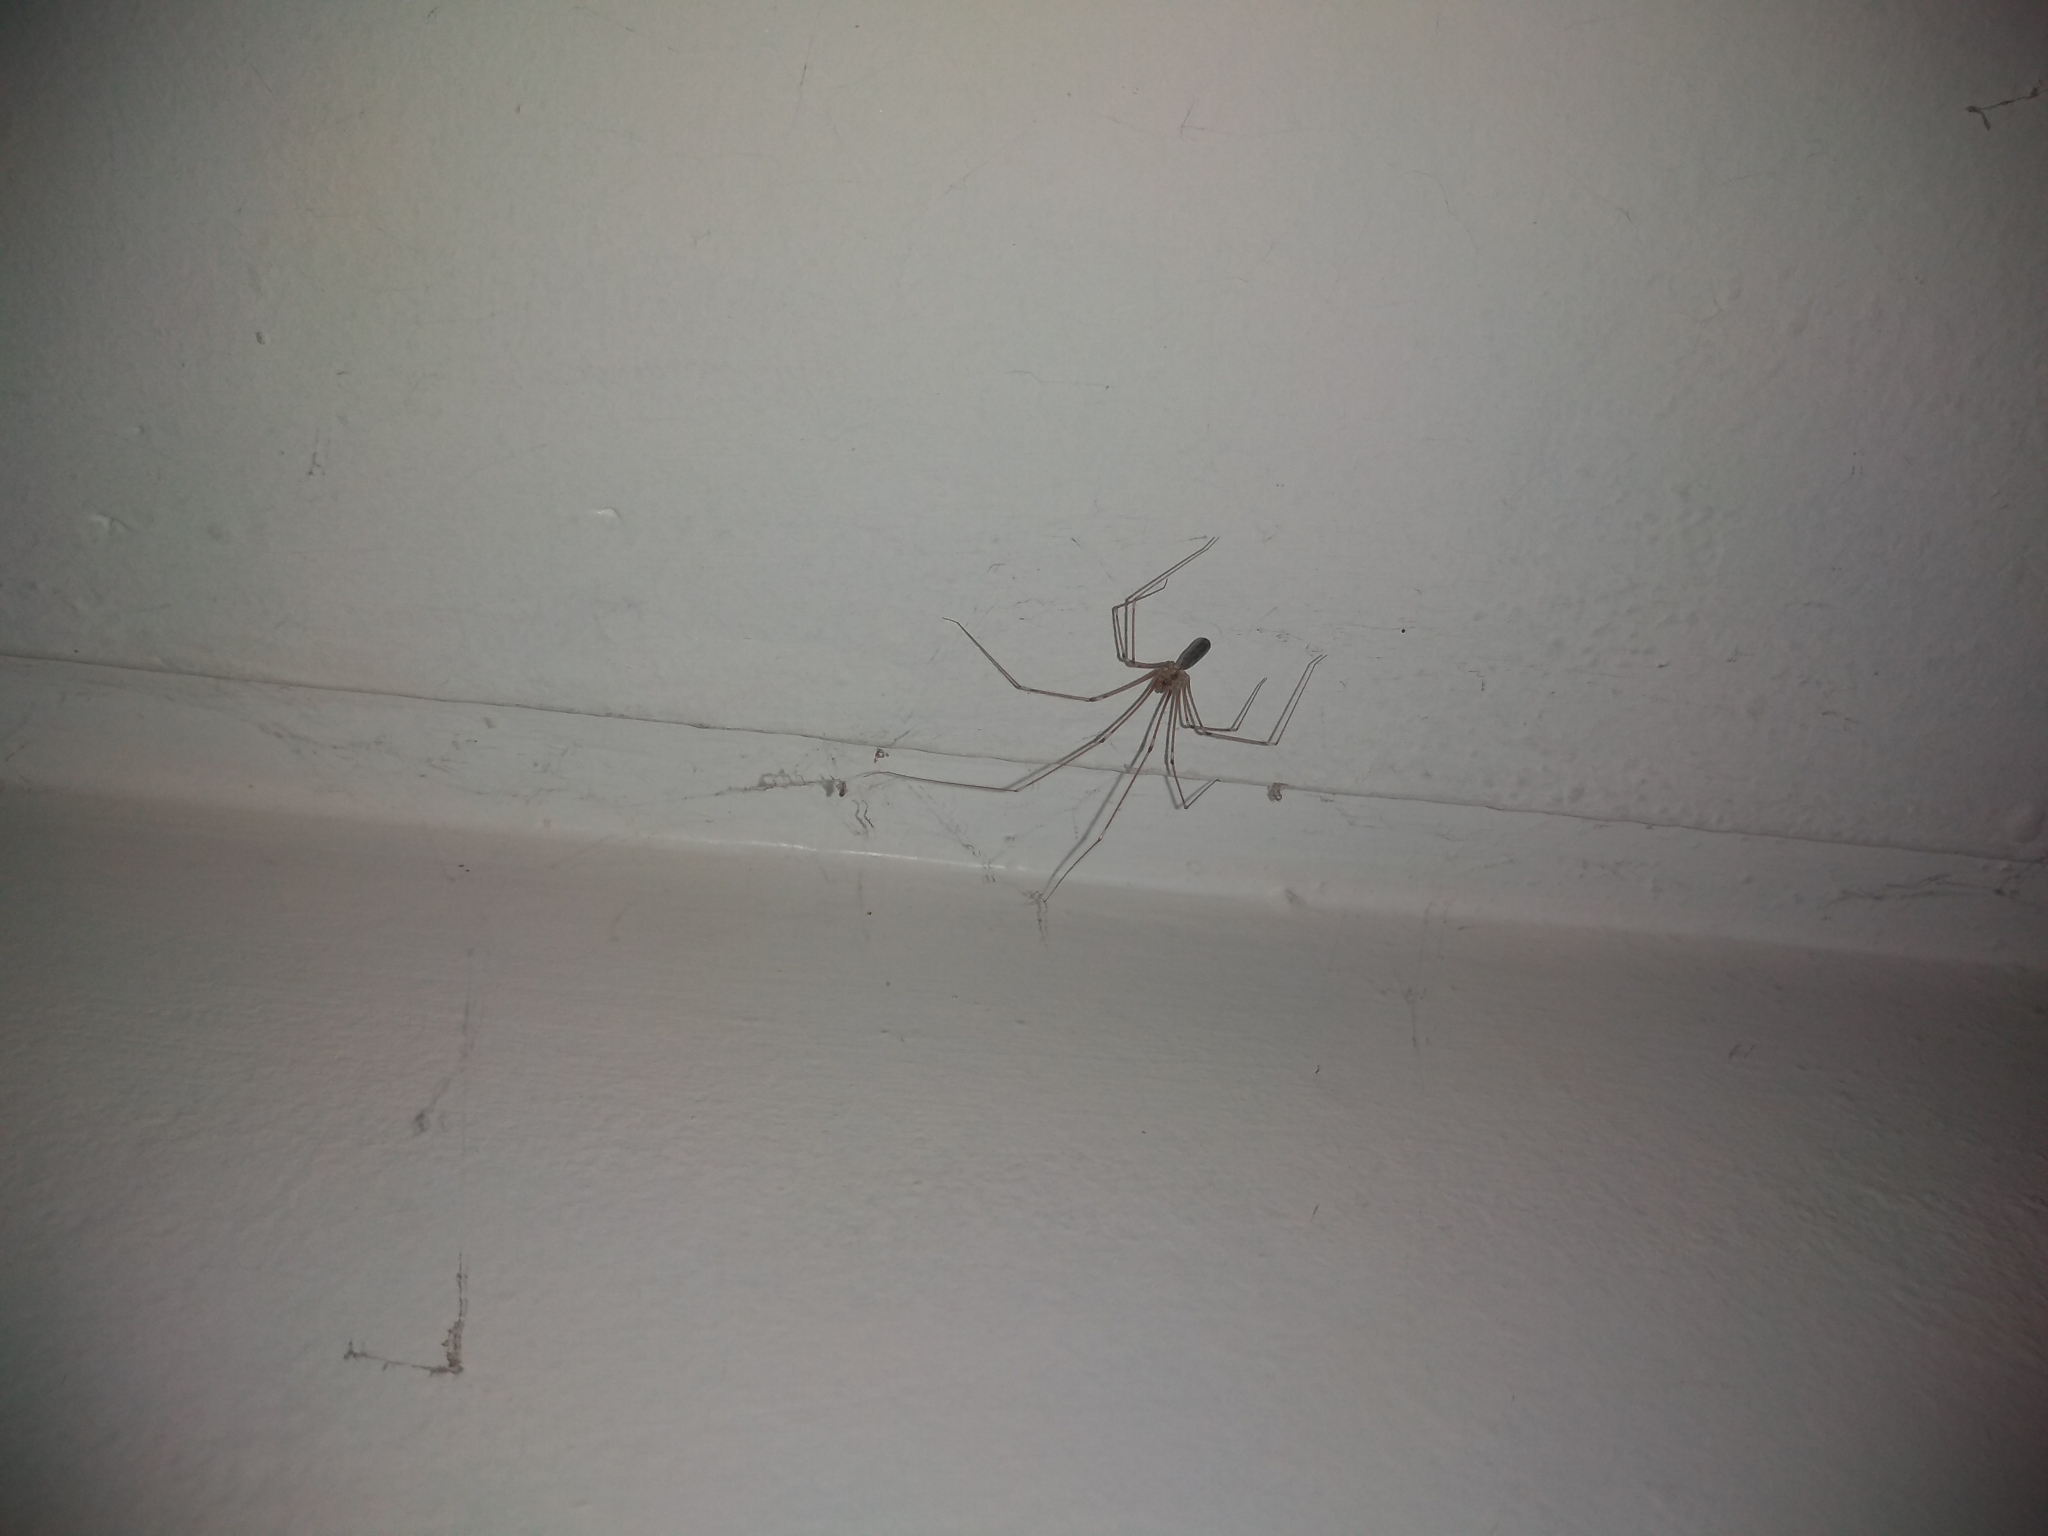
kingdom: Animalia
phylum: Arthropoda
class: Arachnida
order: Araneae
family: Pholcidae
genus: Pholcus
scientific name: Pholcus phalangioides
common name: Longbodied cellar spider
